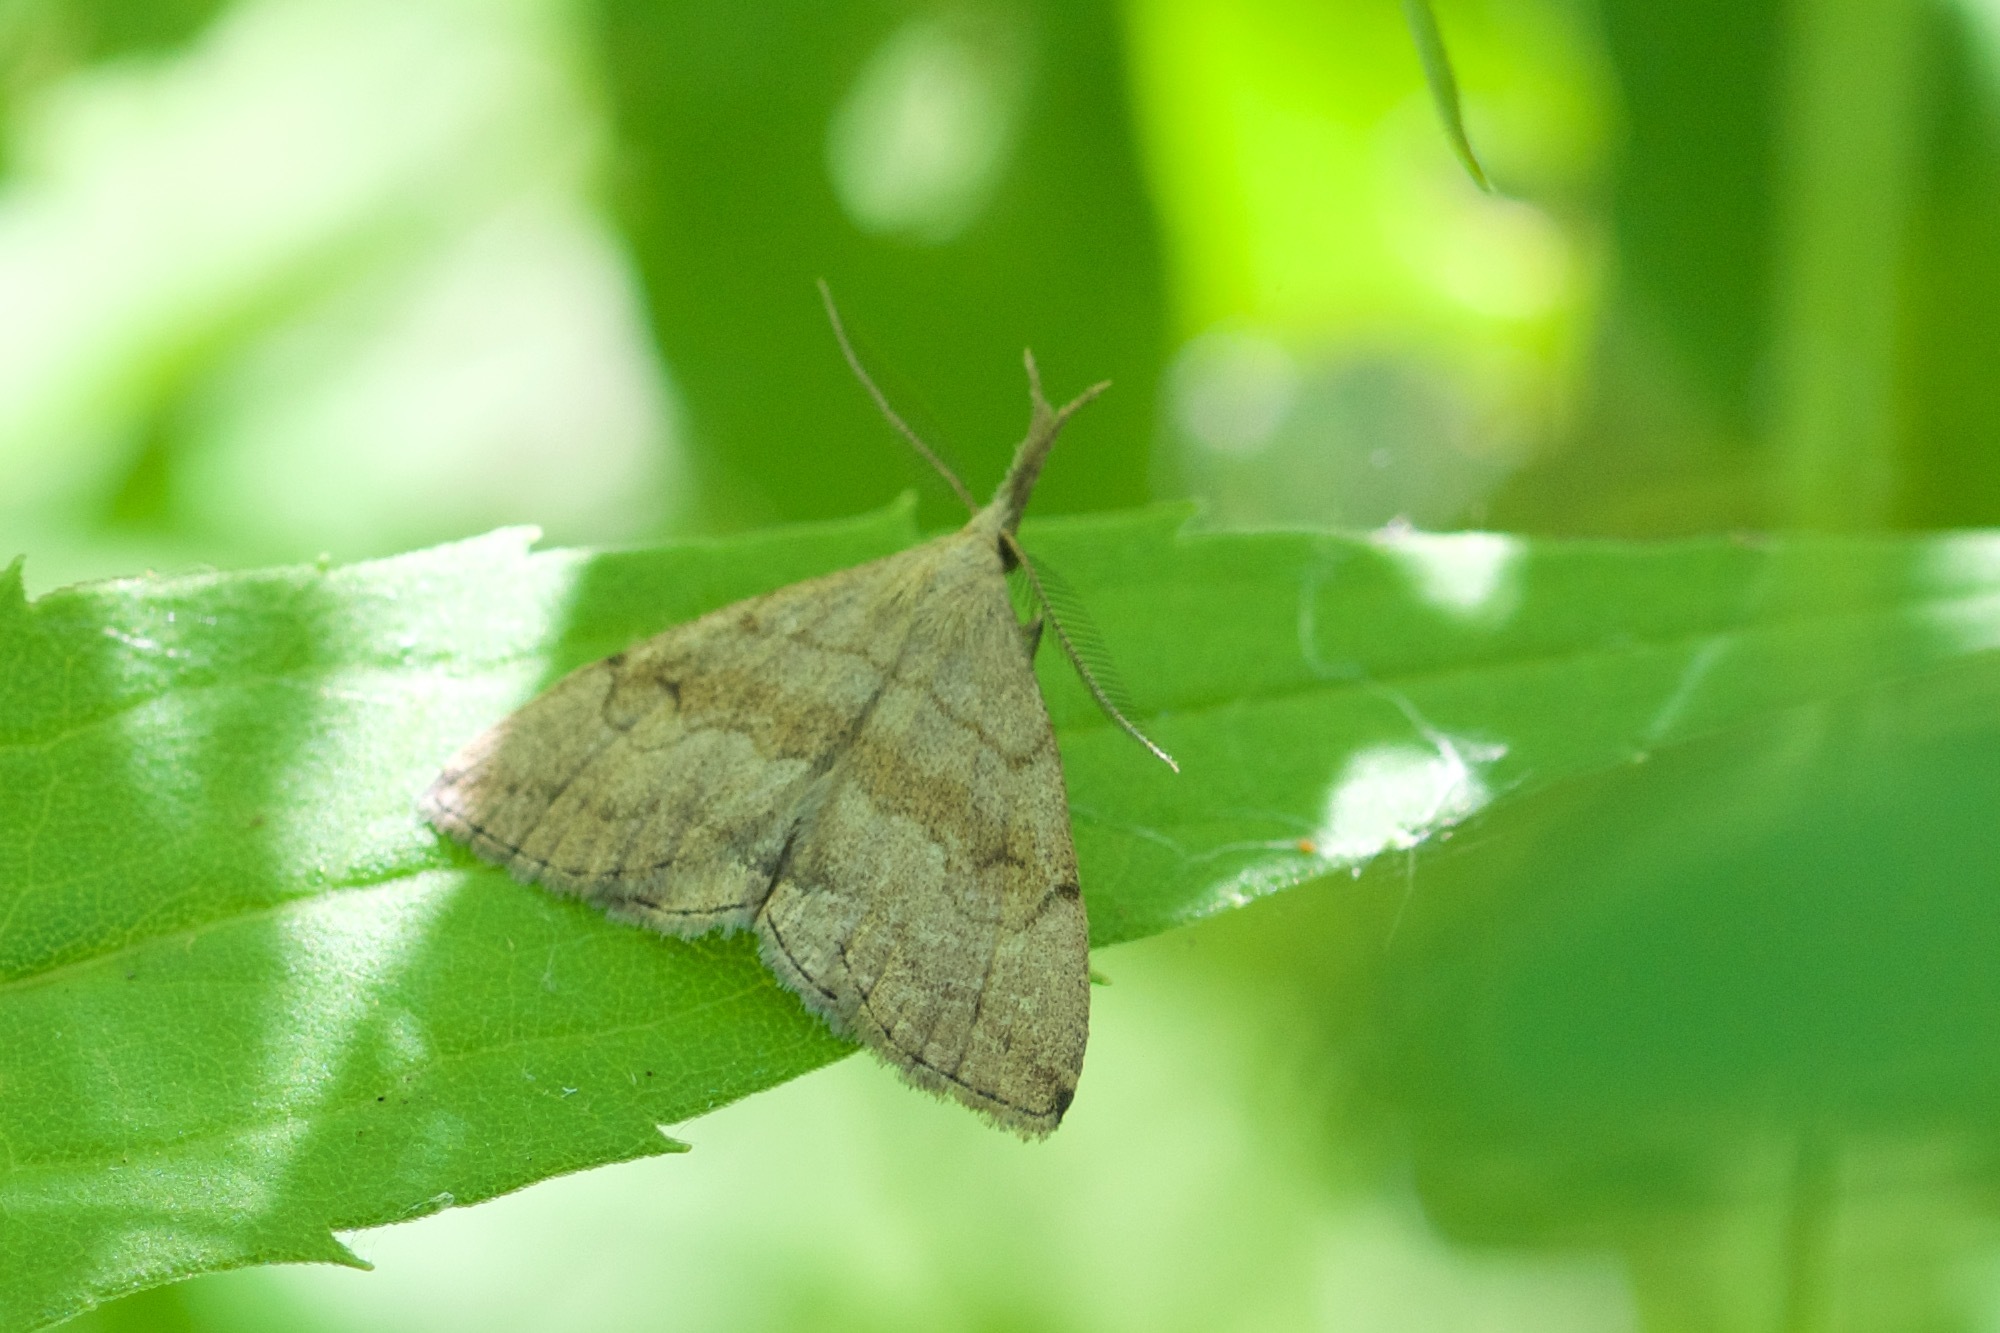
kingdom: Animalia
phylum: Arthropoda
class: Insecta
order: Lepidoptera
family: Erebidae
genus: Phalaenostola
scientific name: Phalaenostola metonalis
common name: Pale phalaenostola moth
